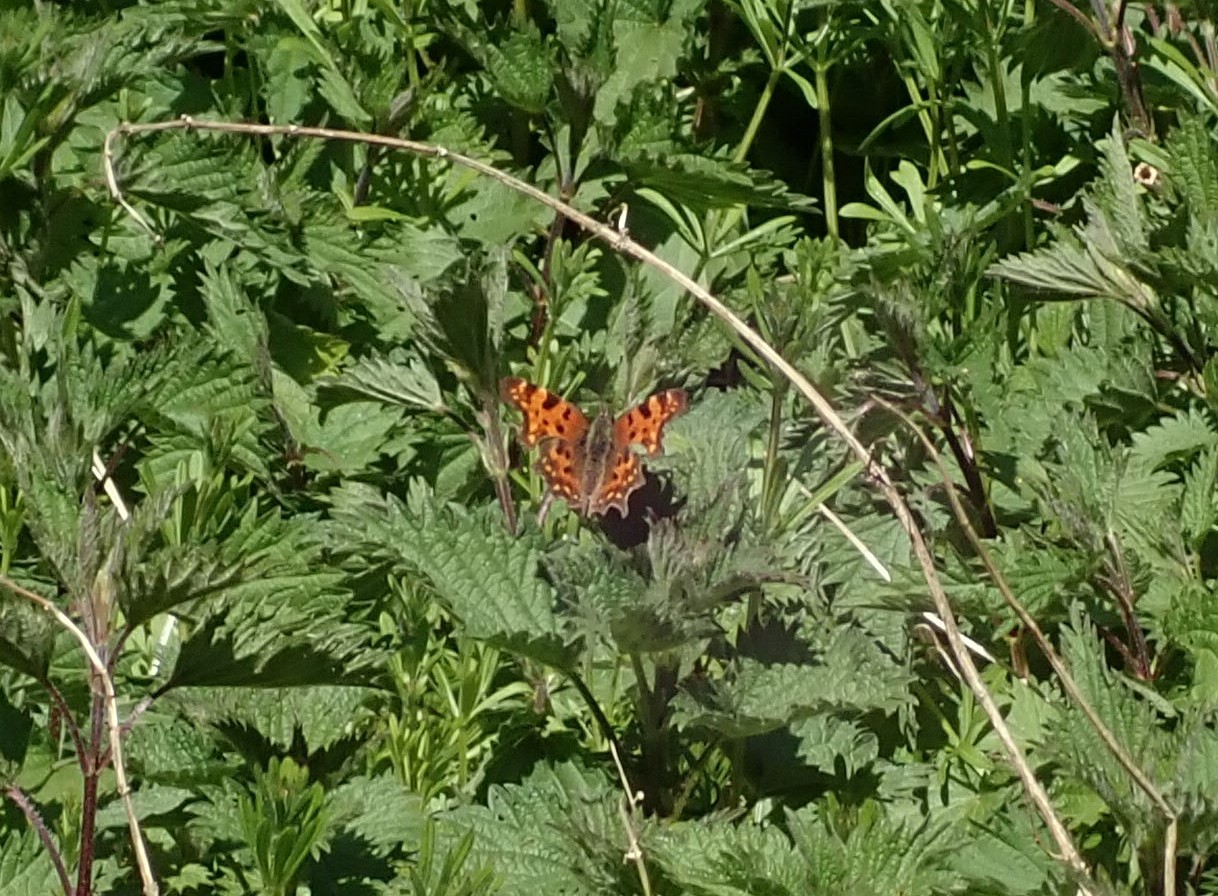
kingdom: Animalia
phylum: Arthropoda
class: Insecta
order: Lepidoptera
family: Nymphalidae
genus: Polygonia
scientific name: Polygonia c-album
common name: Comma
